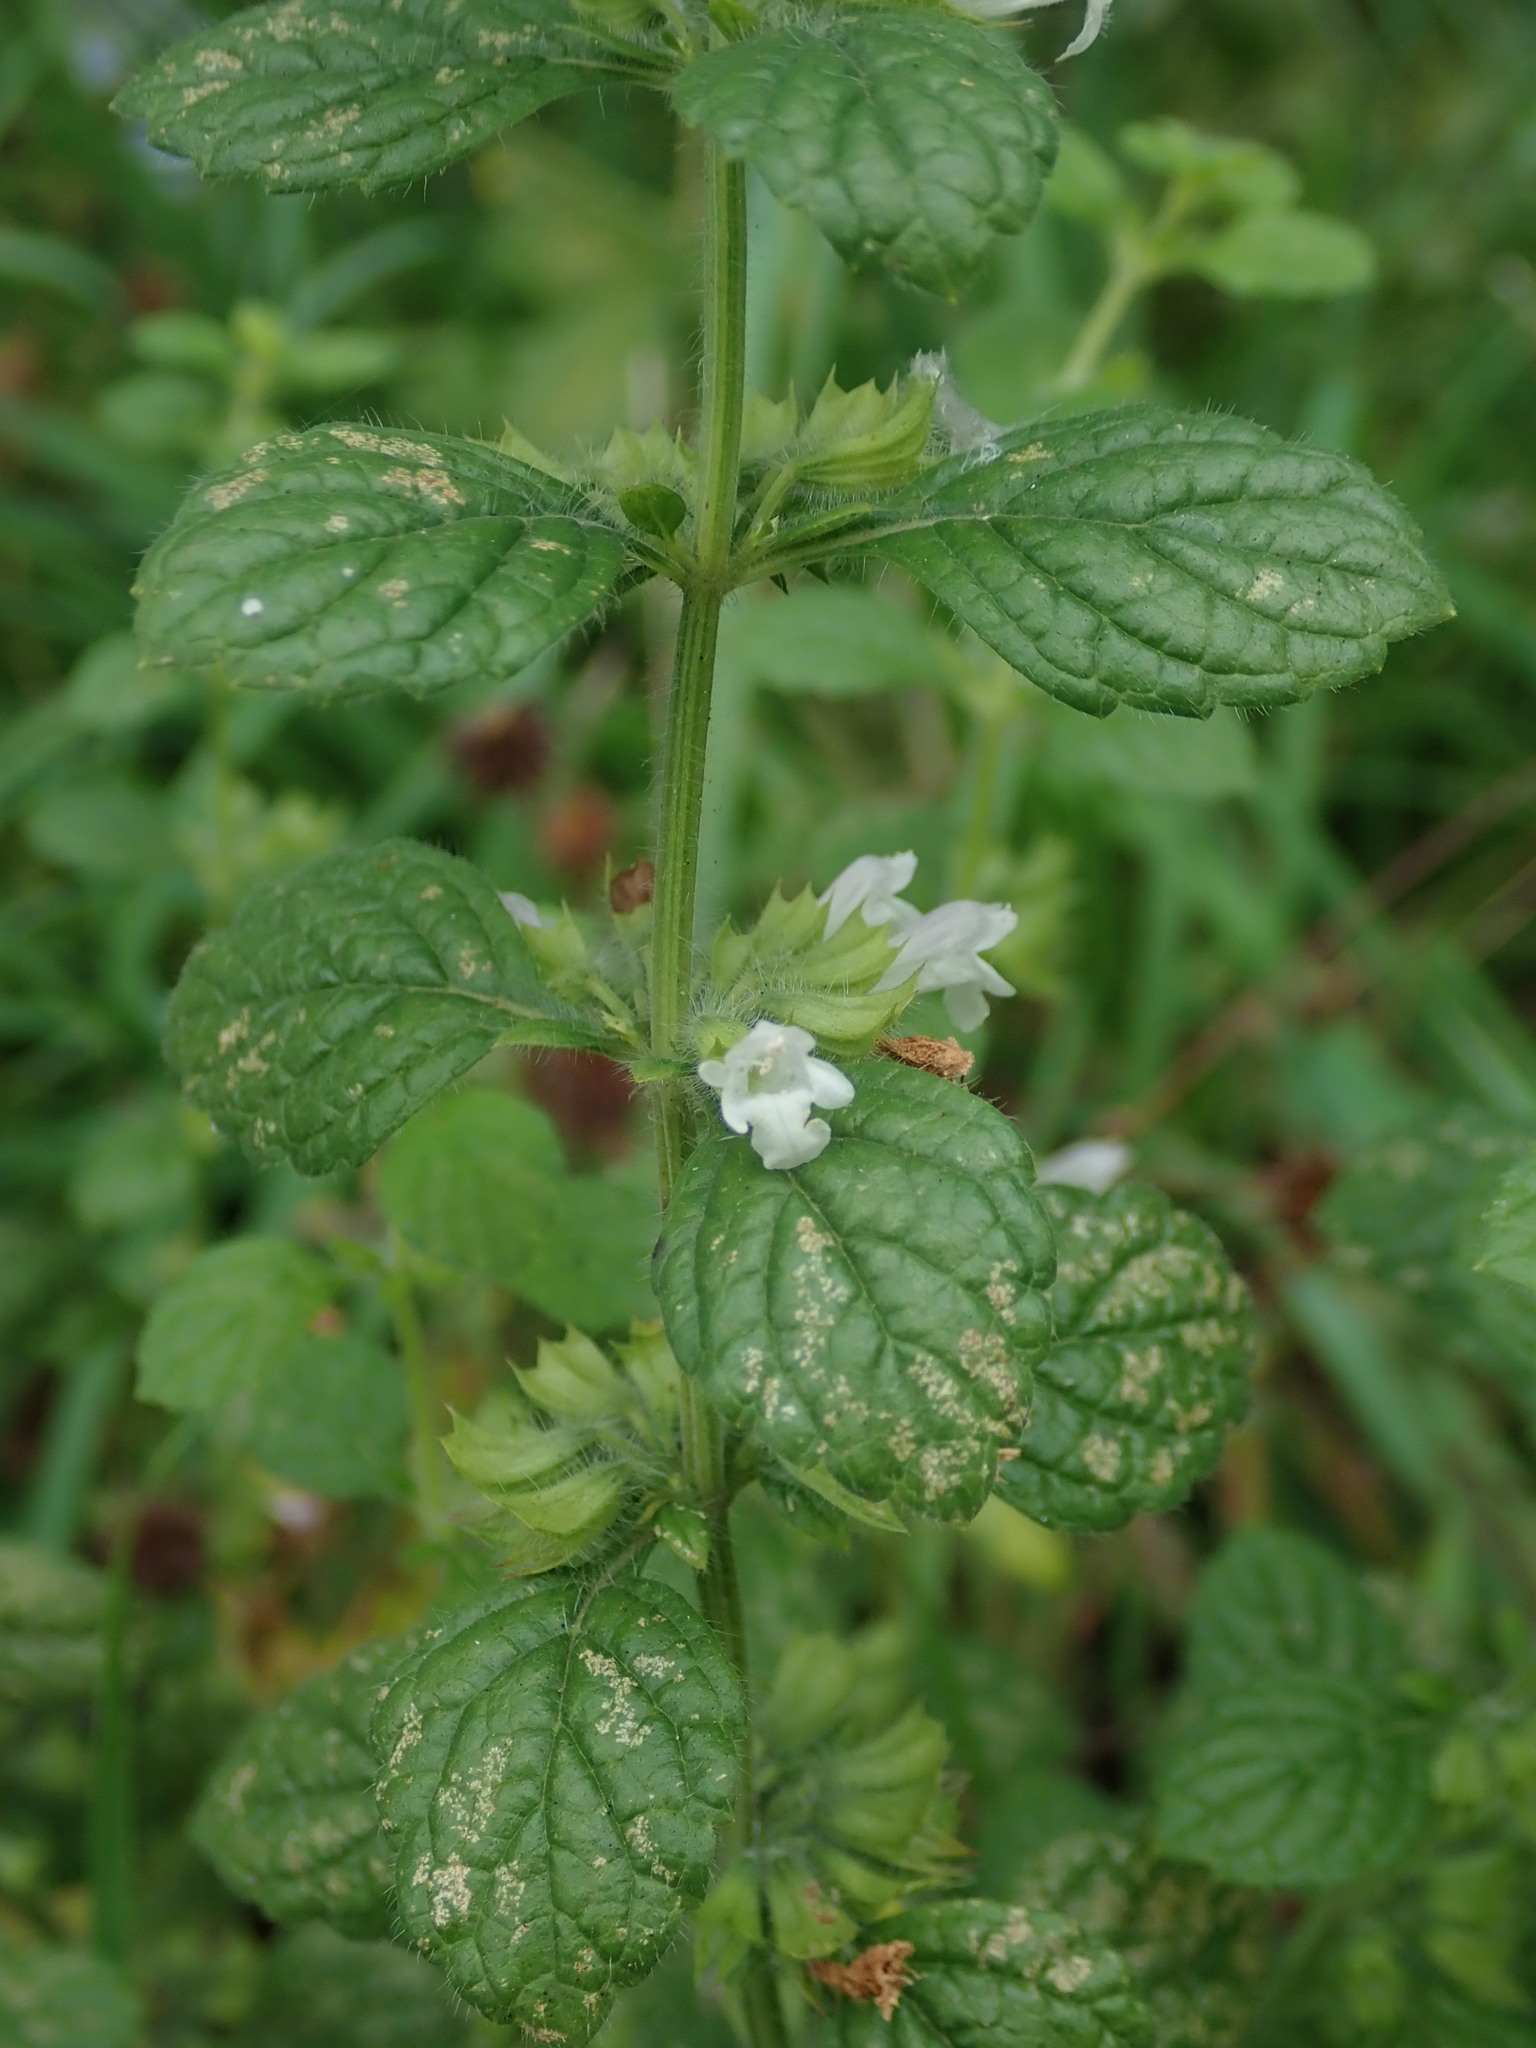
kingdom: Plantae
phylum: Tracheophyta
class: Magnoliopsida
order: Lamiales
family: Lamiaceae
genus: Melissa
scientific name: Melissa officinalis
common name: Balm
